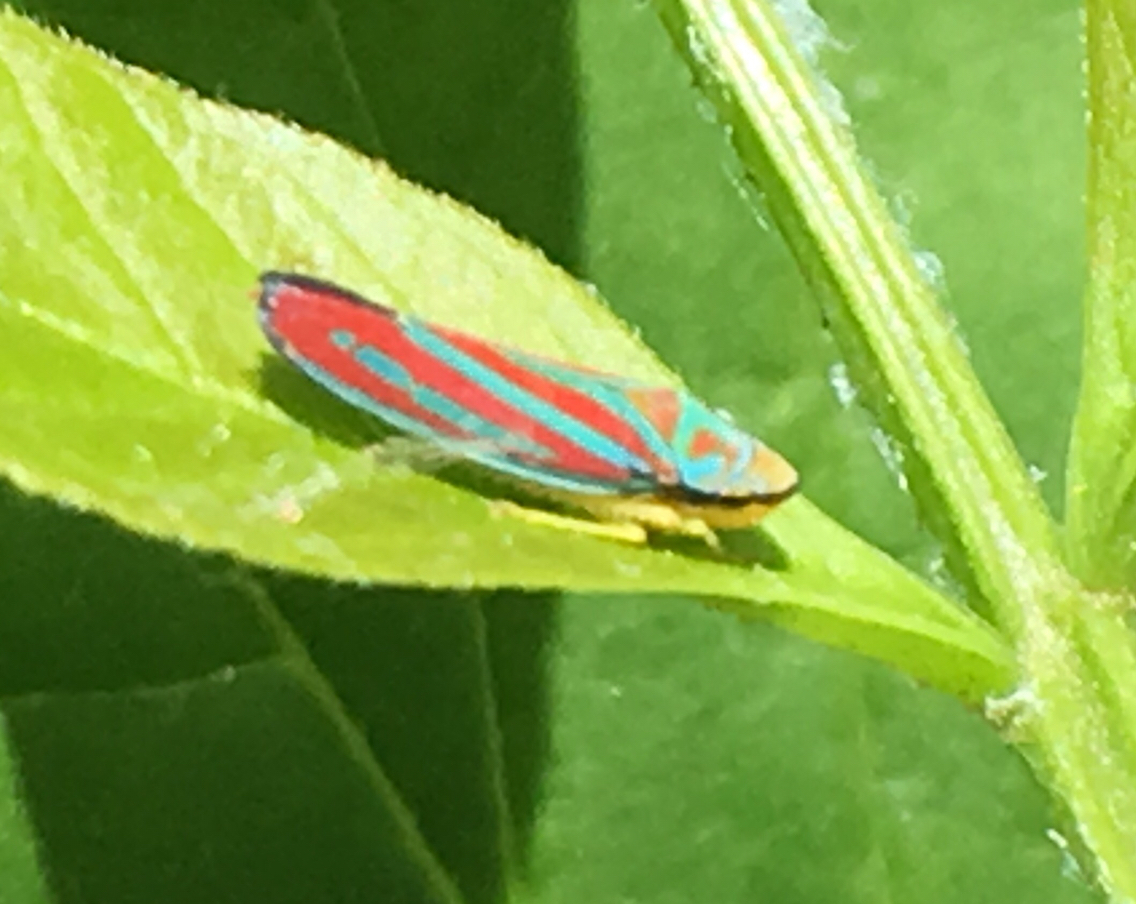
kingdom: Animalia
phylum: Arthropoda
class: Insecta
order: Hemiptera
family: Cicadellidae
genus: Graphocephala
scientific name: Graphocephala coccinea
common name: Candy-striped leafhopper
